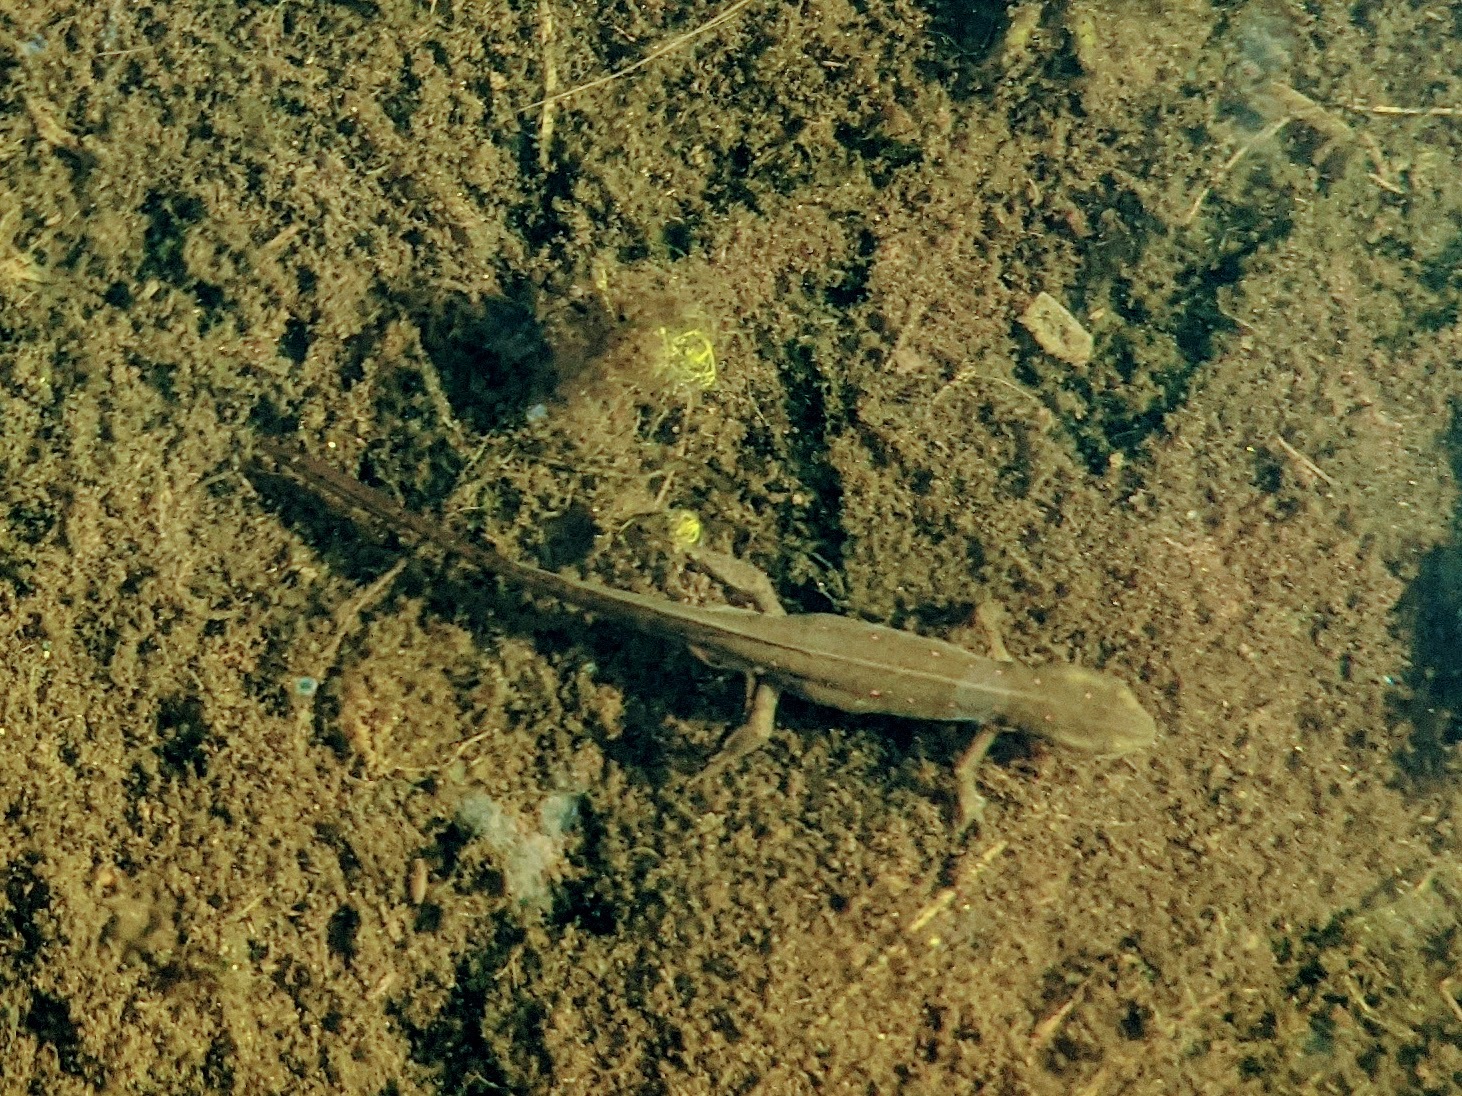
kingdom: Animalia
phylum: Chordata
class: Amphibia
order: Caudata
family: Salamandridae
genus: Notophthalmus
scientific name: Notophthalmus viridescens
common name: Eastern newt
